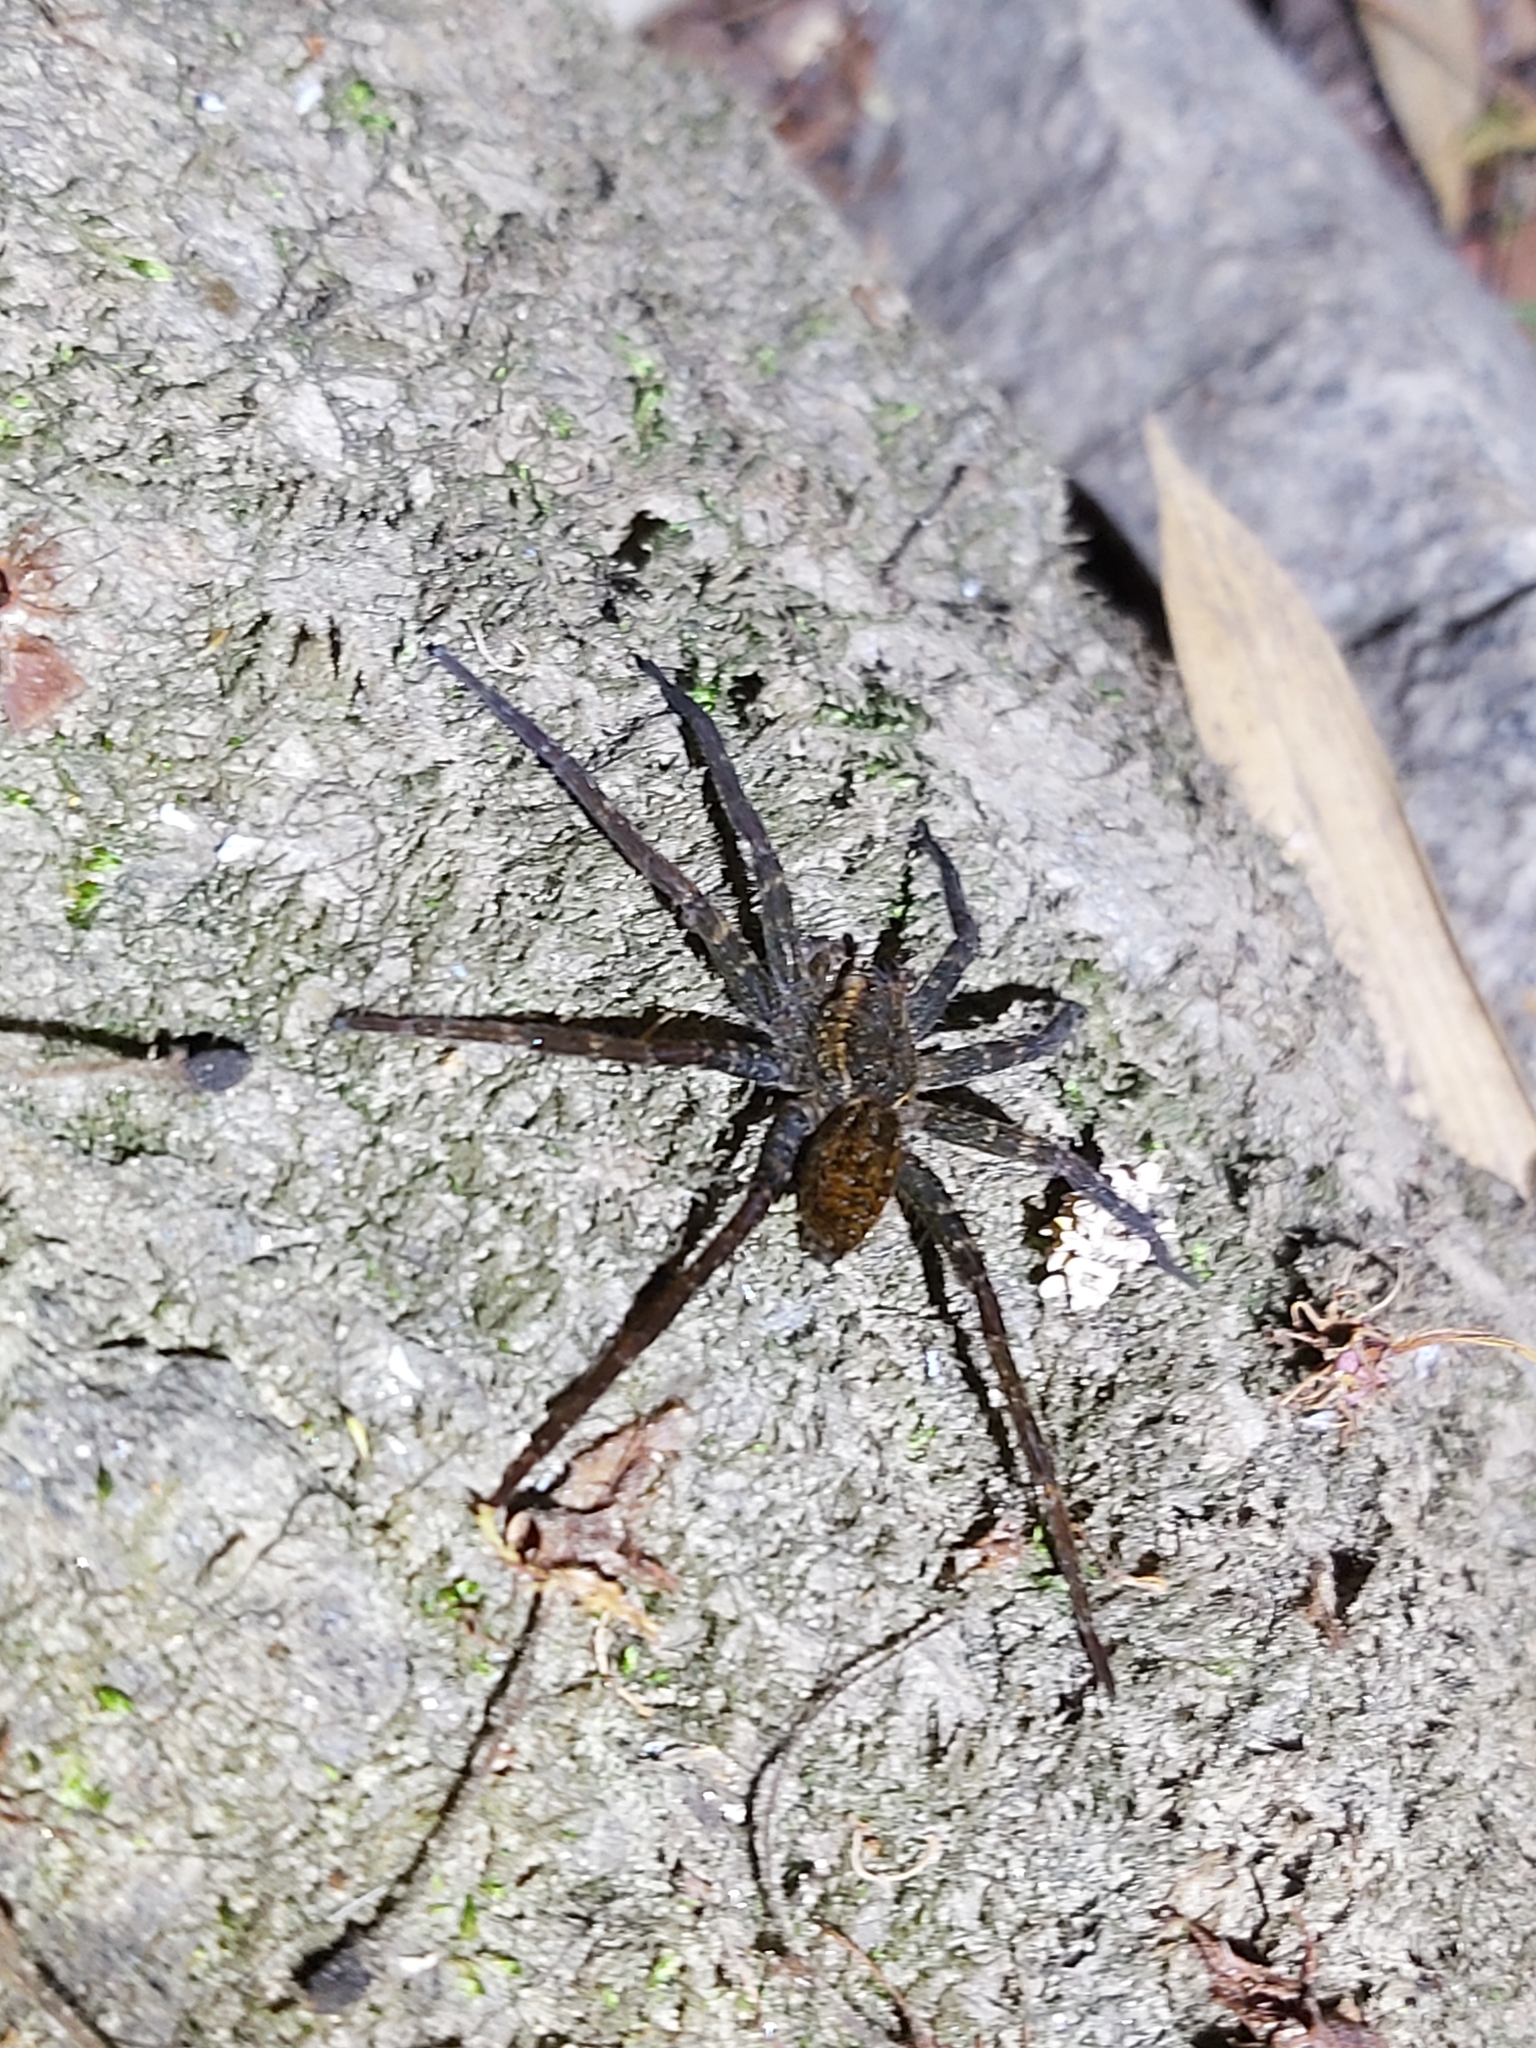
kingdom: Animalia
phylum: Arthropoda
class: Arachnida
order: Araneae
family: Pisauridae
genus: Dolomedes
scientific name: Dolomedes raptor
